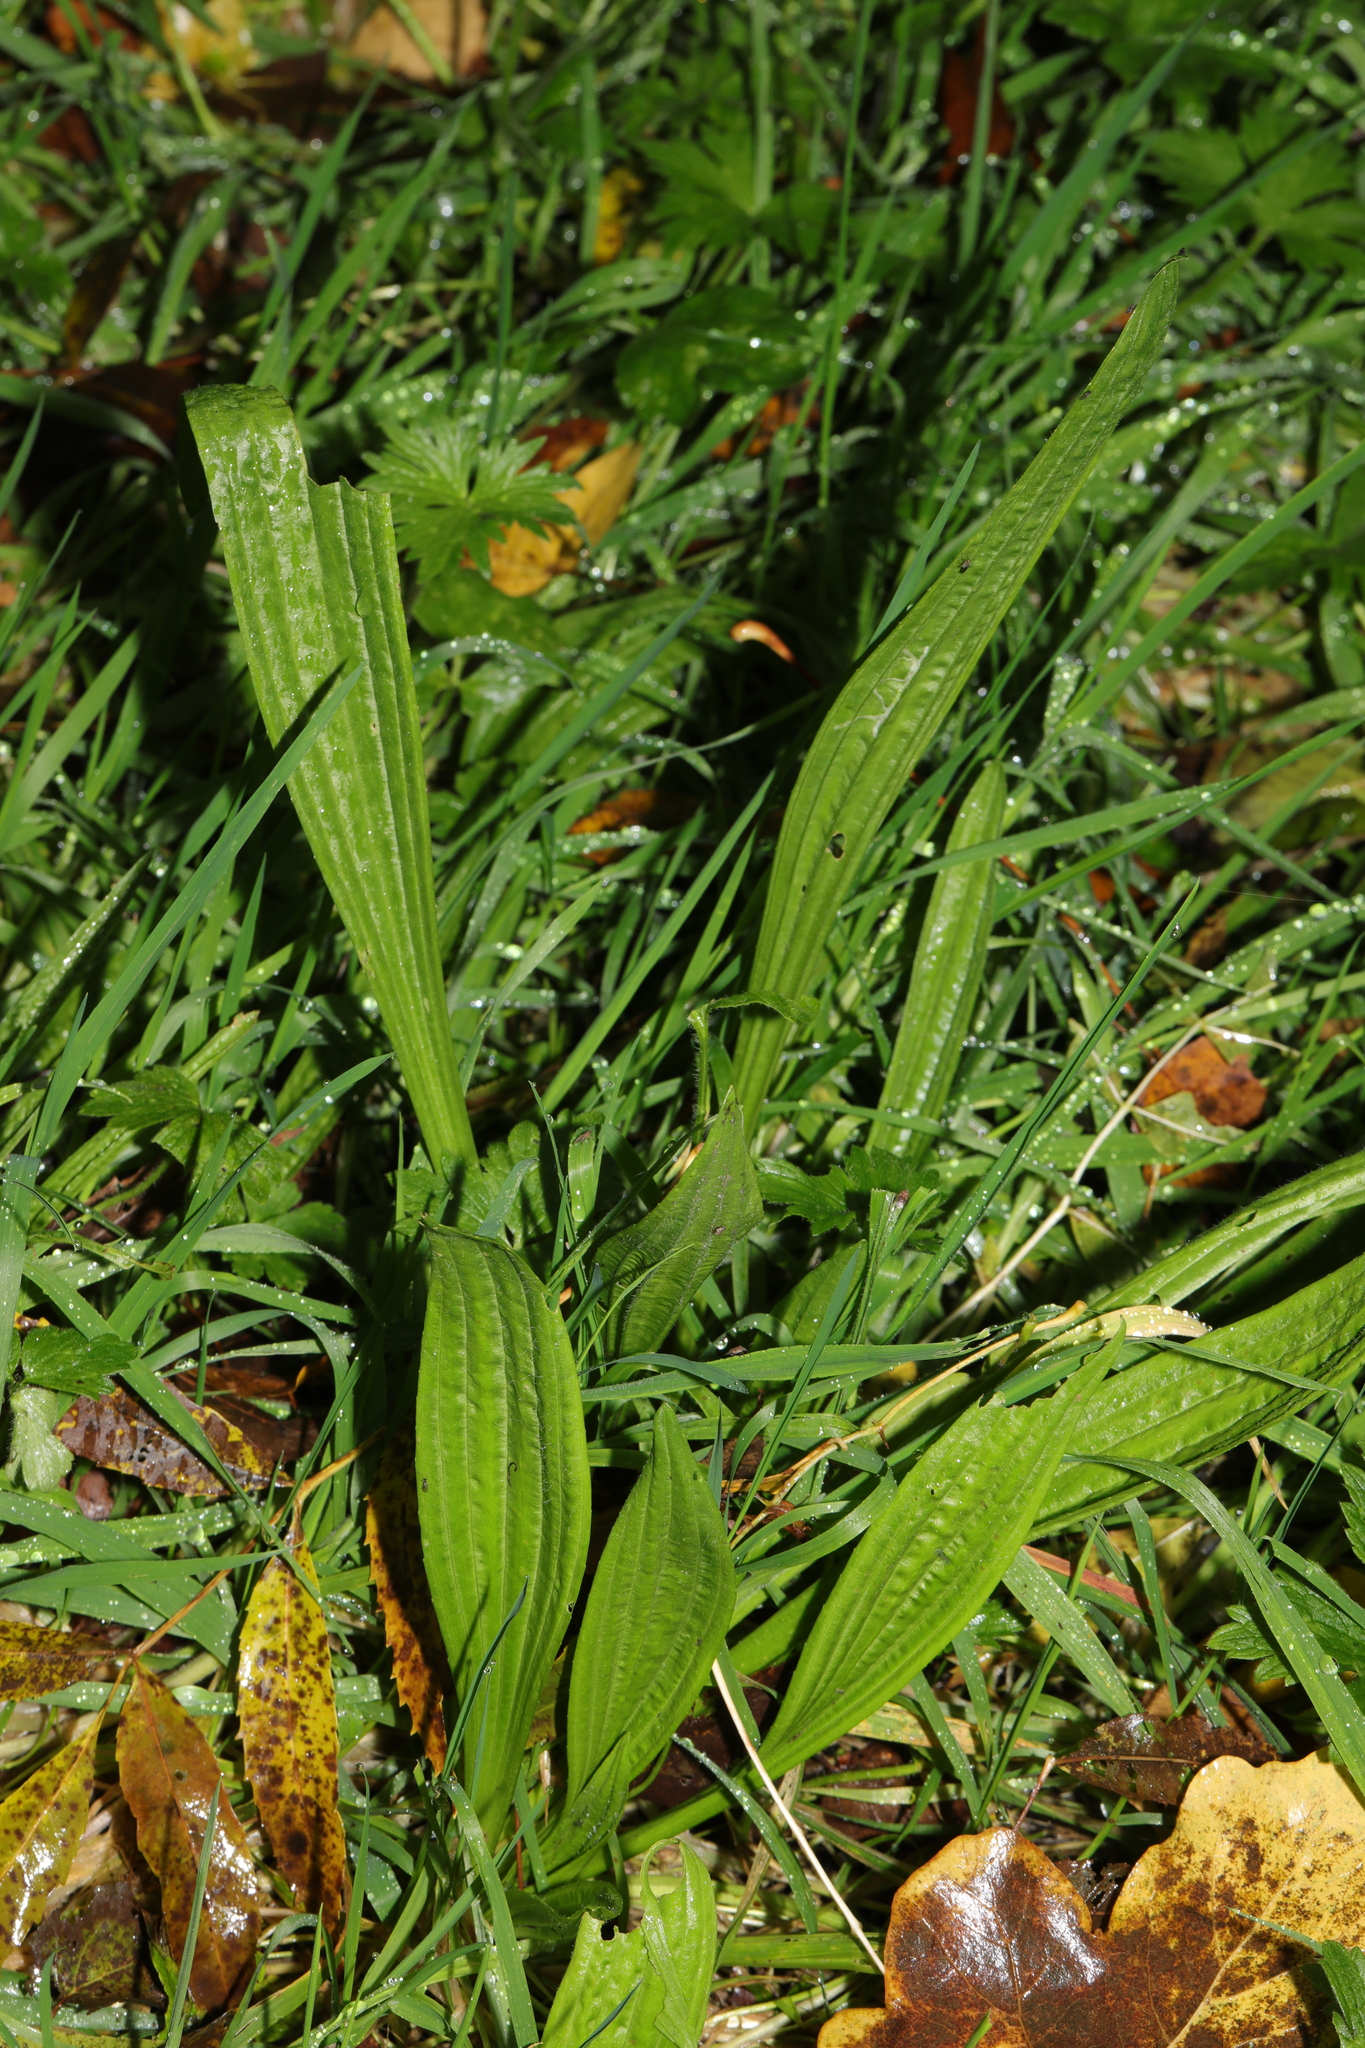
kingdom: Plantae
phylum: Tracheophyta
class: Magnoliopsida
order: Lamiales
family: Plantaginaceae
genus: Plantago
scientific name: Plantago lanceolata
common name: Ribwort plantain
